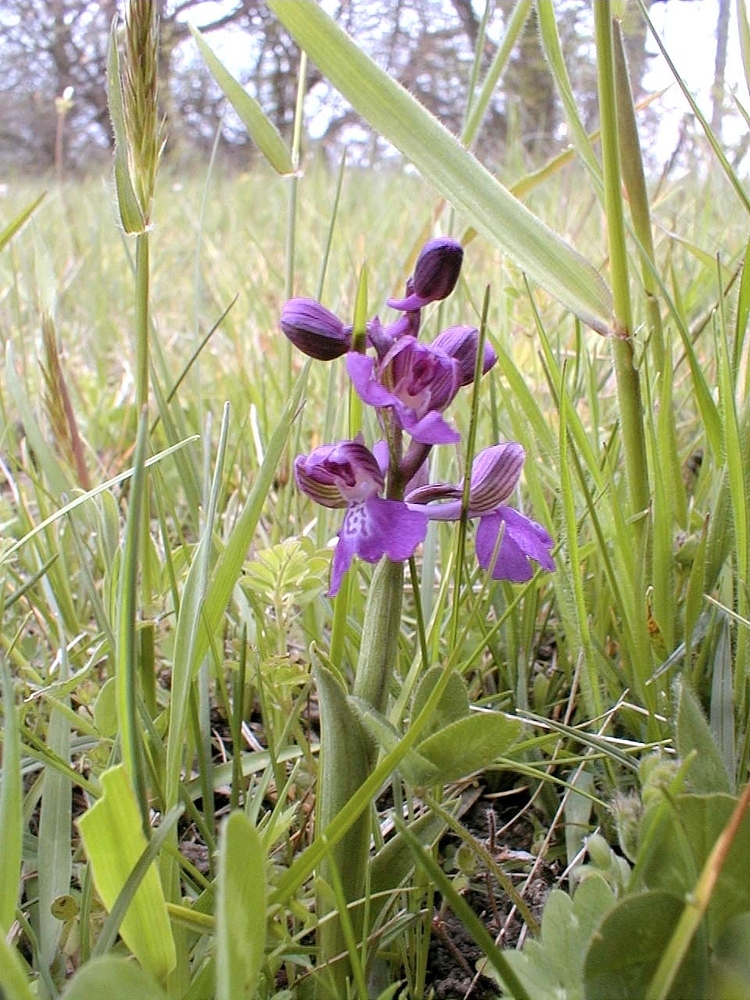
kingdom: Plantae
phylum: Tracheophyta
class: Liliopsida
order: Asparagales
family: Orchidaceae
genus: Anacamptis
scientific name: Anacamptis morio
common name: Green-winged orchid
